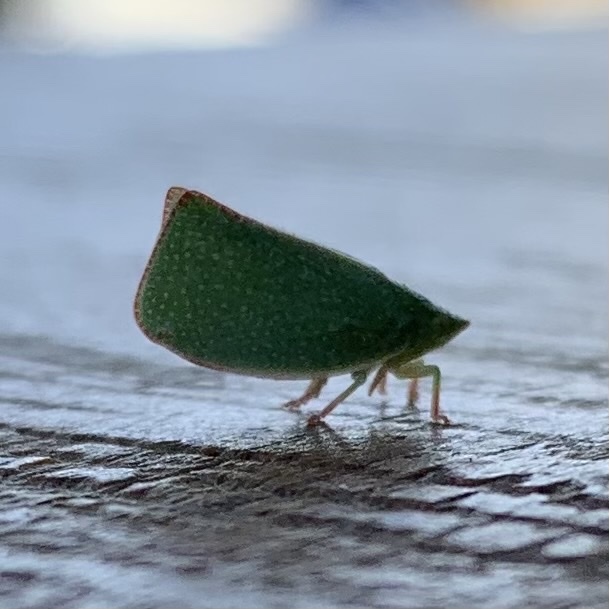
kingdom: Animalia
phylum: Arthropoda
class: Insecta
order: Hemiptera
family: Flatidae
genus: Siphanta
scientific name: Siphanta acuta
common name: Torpedo bug
